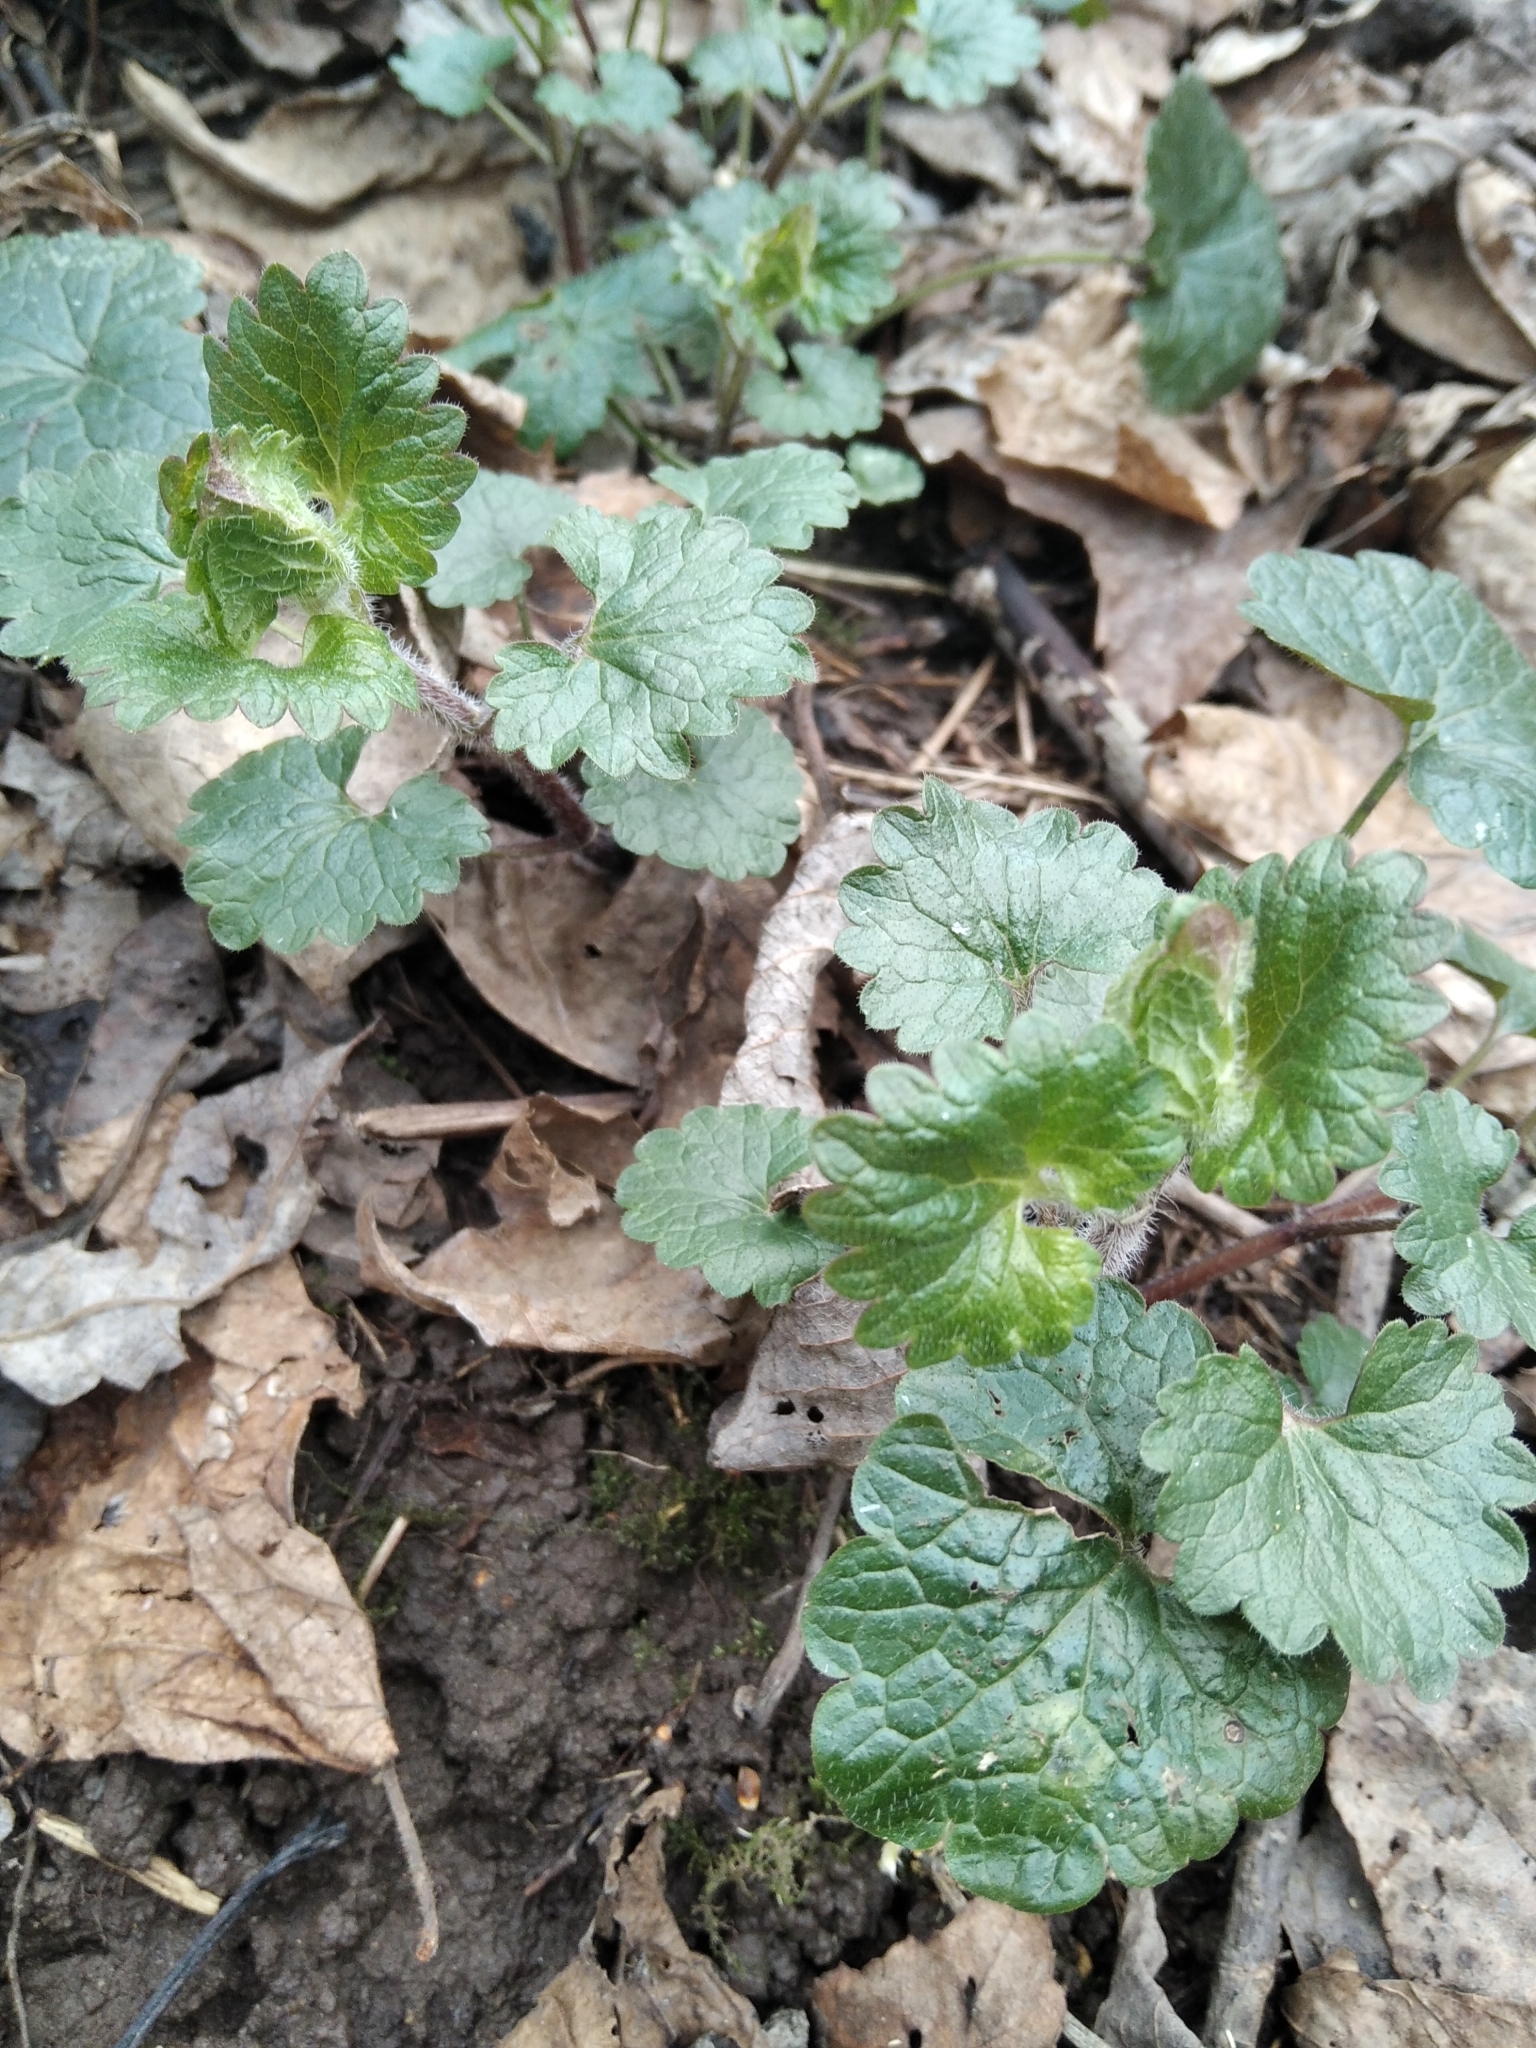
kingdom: Plantae
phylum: Tracheophyta
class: Magnoliopsida
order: Lamiales
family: Lamiaceae
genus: Glechoma
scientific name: Glechoma hederacea
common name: Ground ivy
